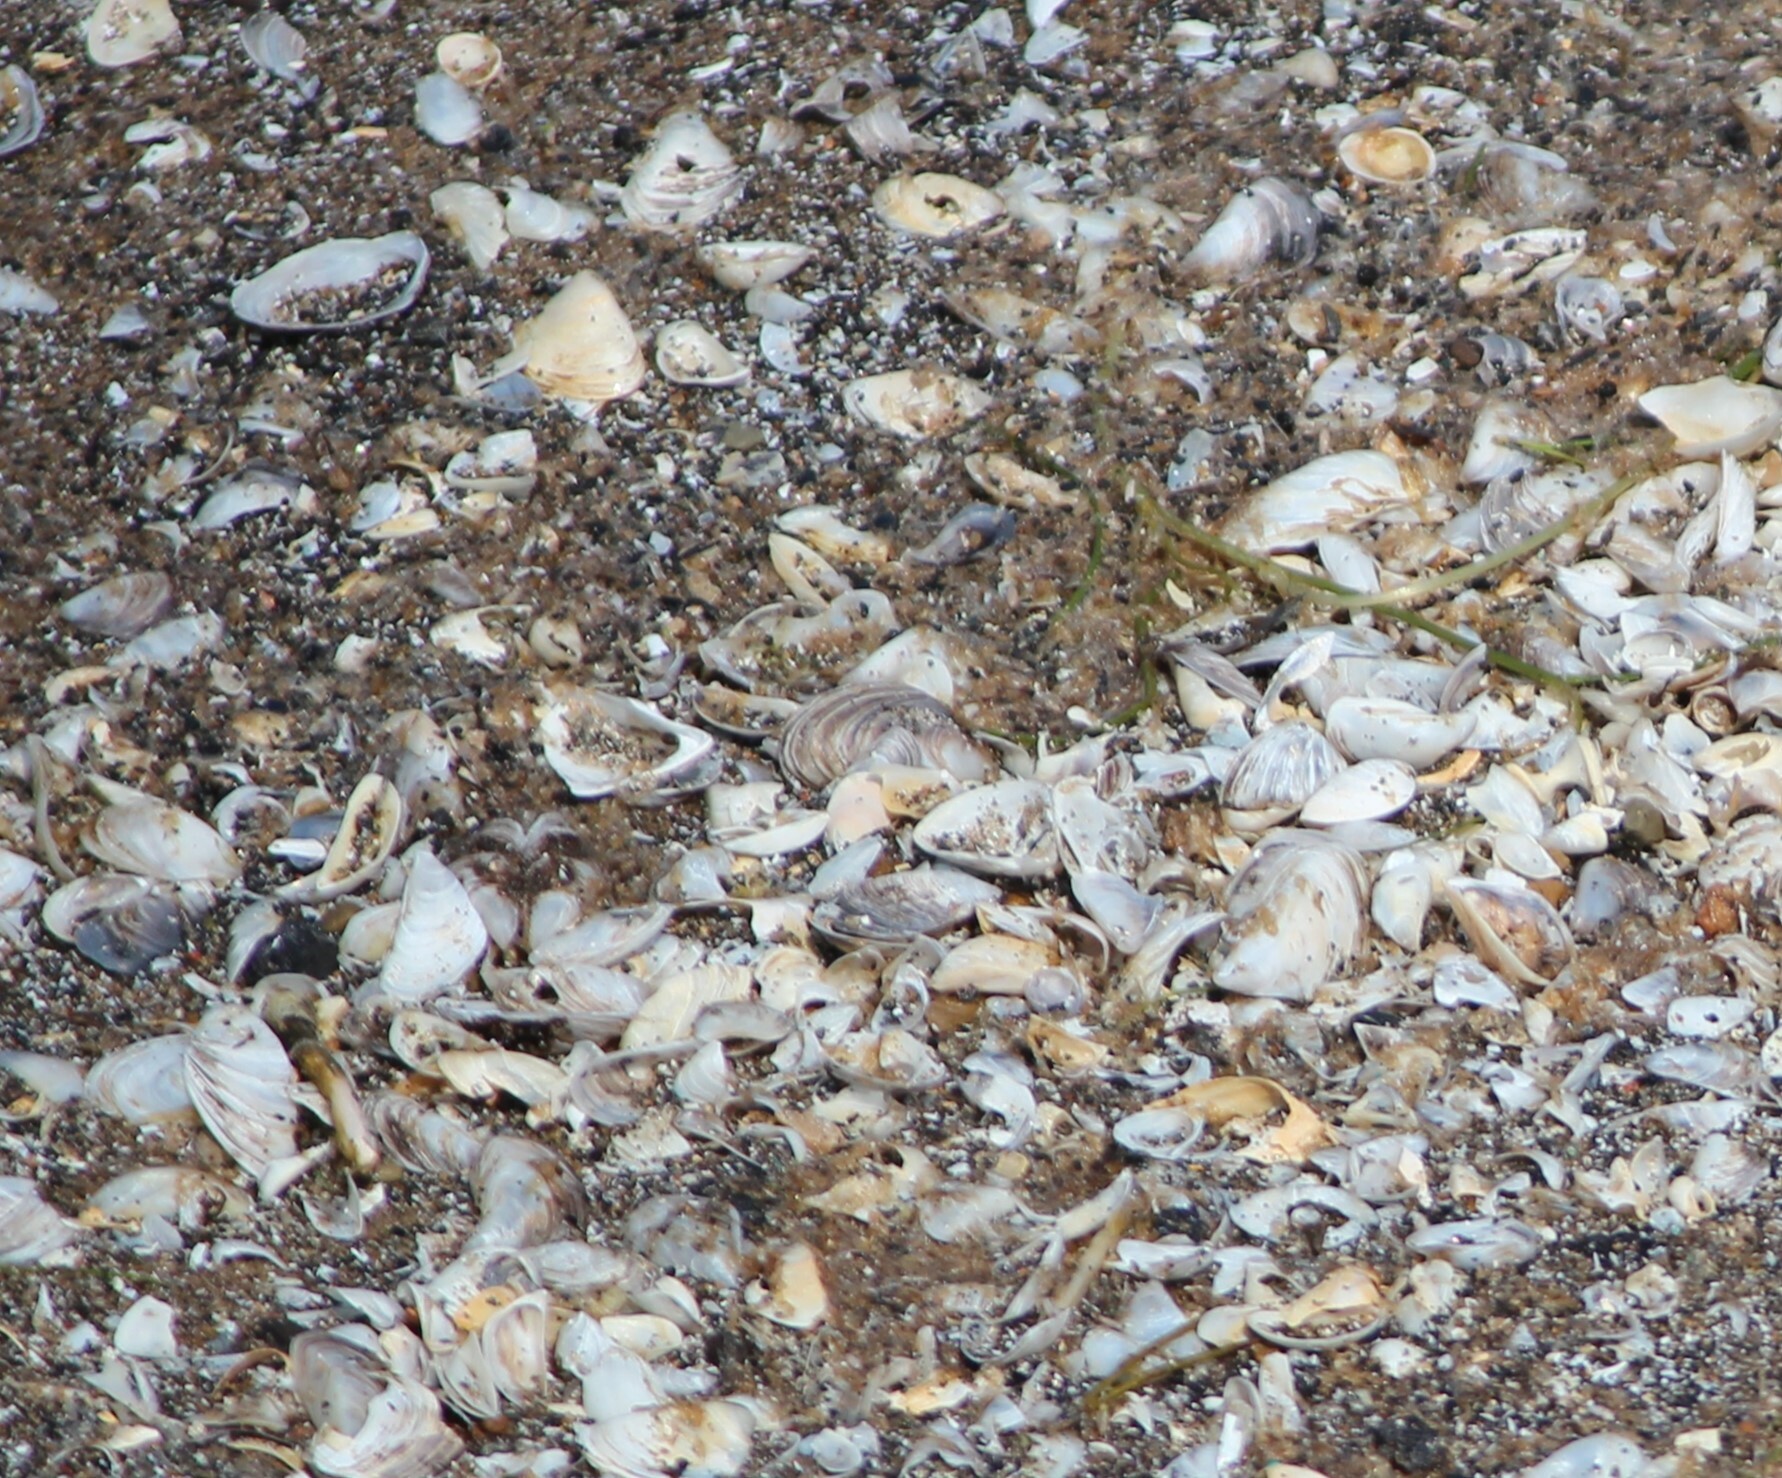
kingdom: Animalia
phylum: Mollusca
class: Bivalvia
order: Myida
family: Dreissenidae
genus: Dreissena
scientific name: Dreissena polymorpha
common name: Zebra mussel
